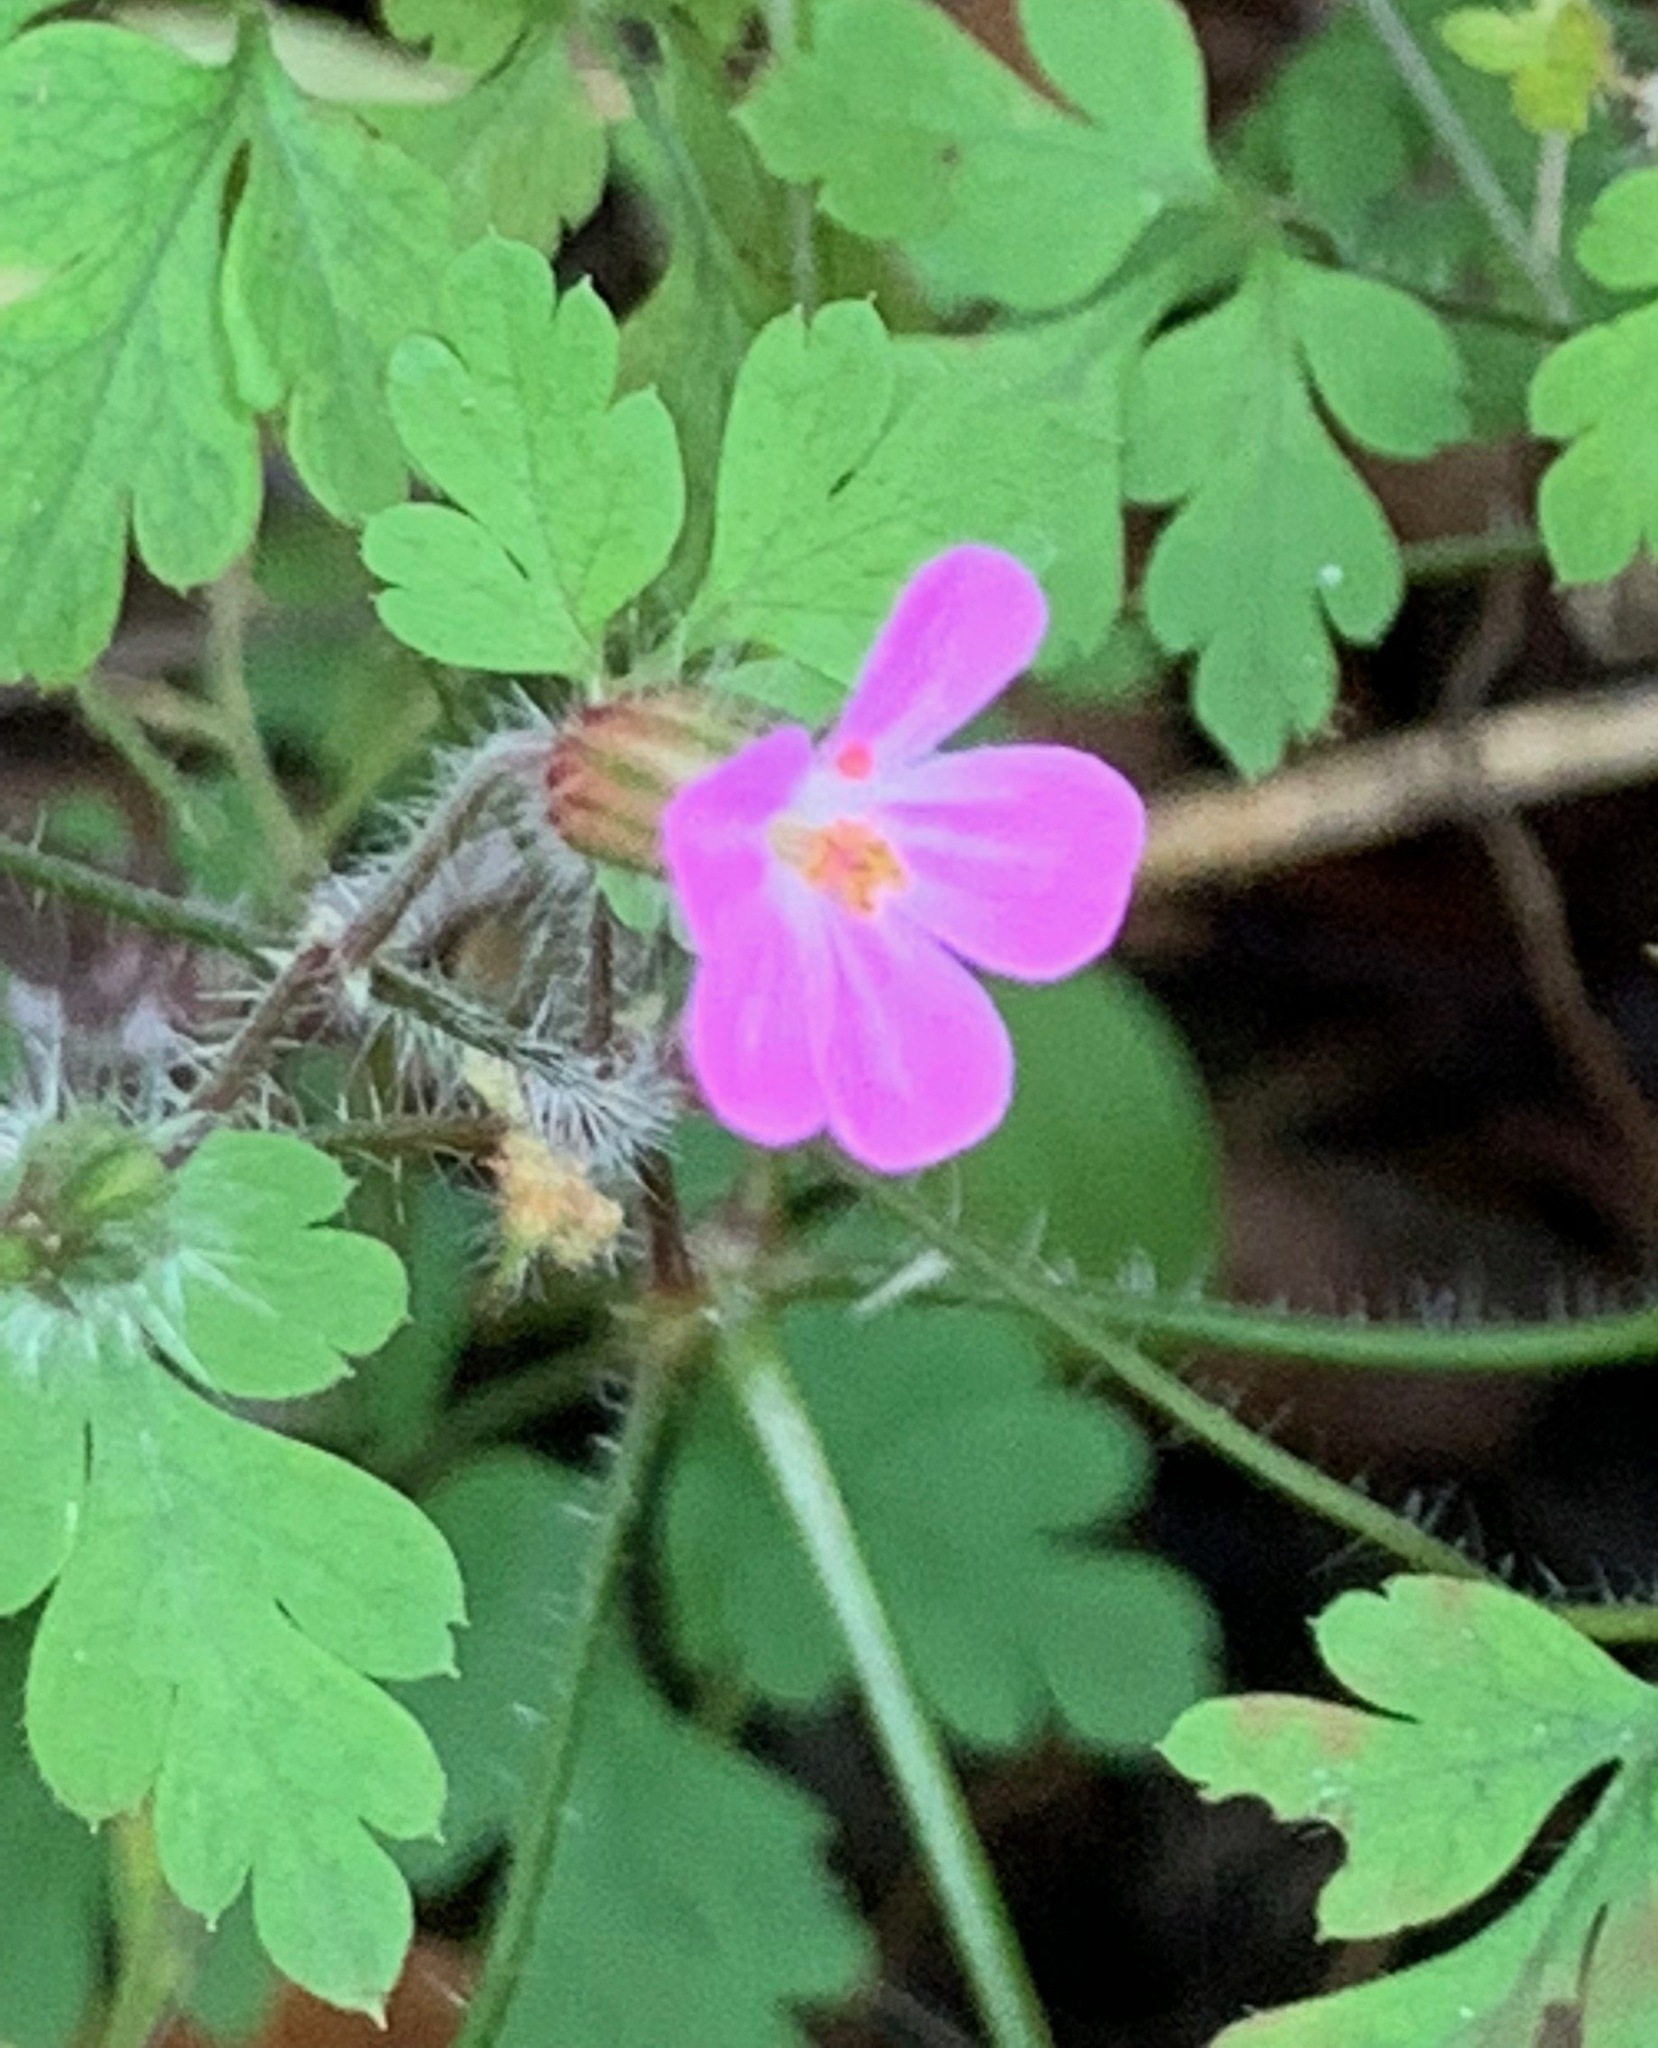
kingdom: Plantae
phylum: Tracheophyta
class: Magnoliopsida
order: Geraniales
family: Geraniaceae
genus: Geranium
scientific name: Geranium robertianum
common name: Herb-robert
